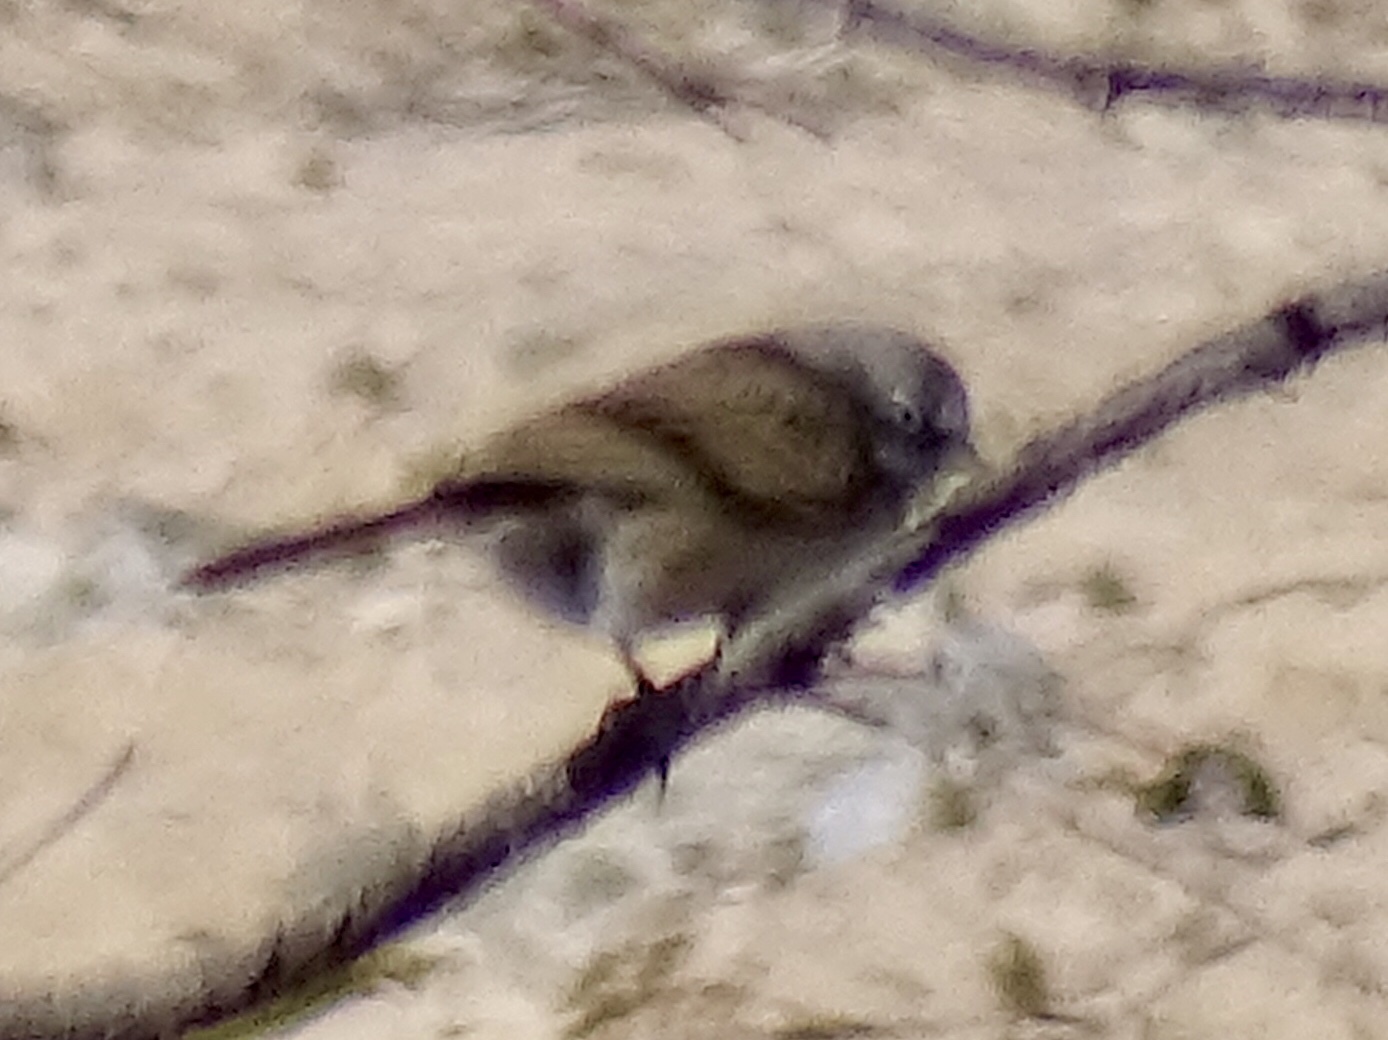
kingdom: Animalia
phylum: Chordata
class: Aves
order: Passeriformes
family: Passerellidae
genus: Artemisiospiza
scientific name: Artemisiospiza nevadensis
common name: Sagebrush sparrow
